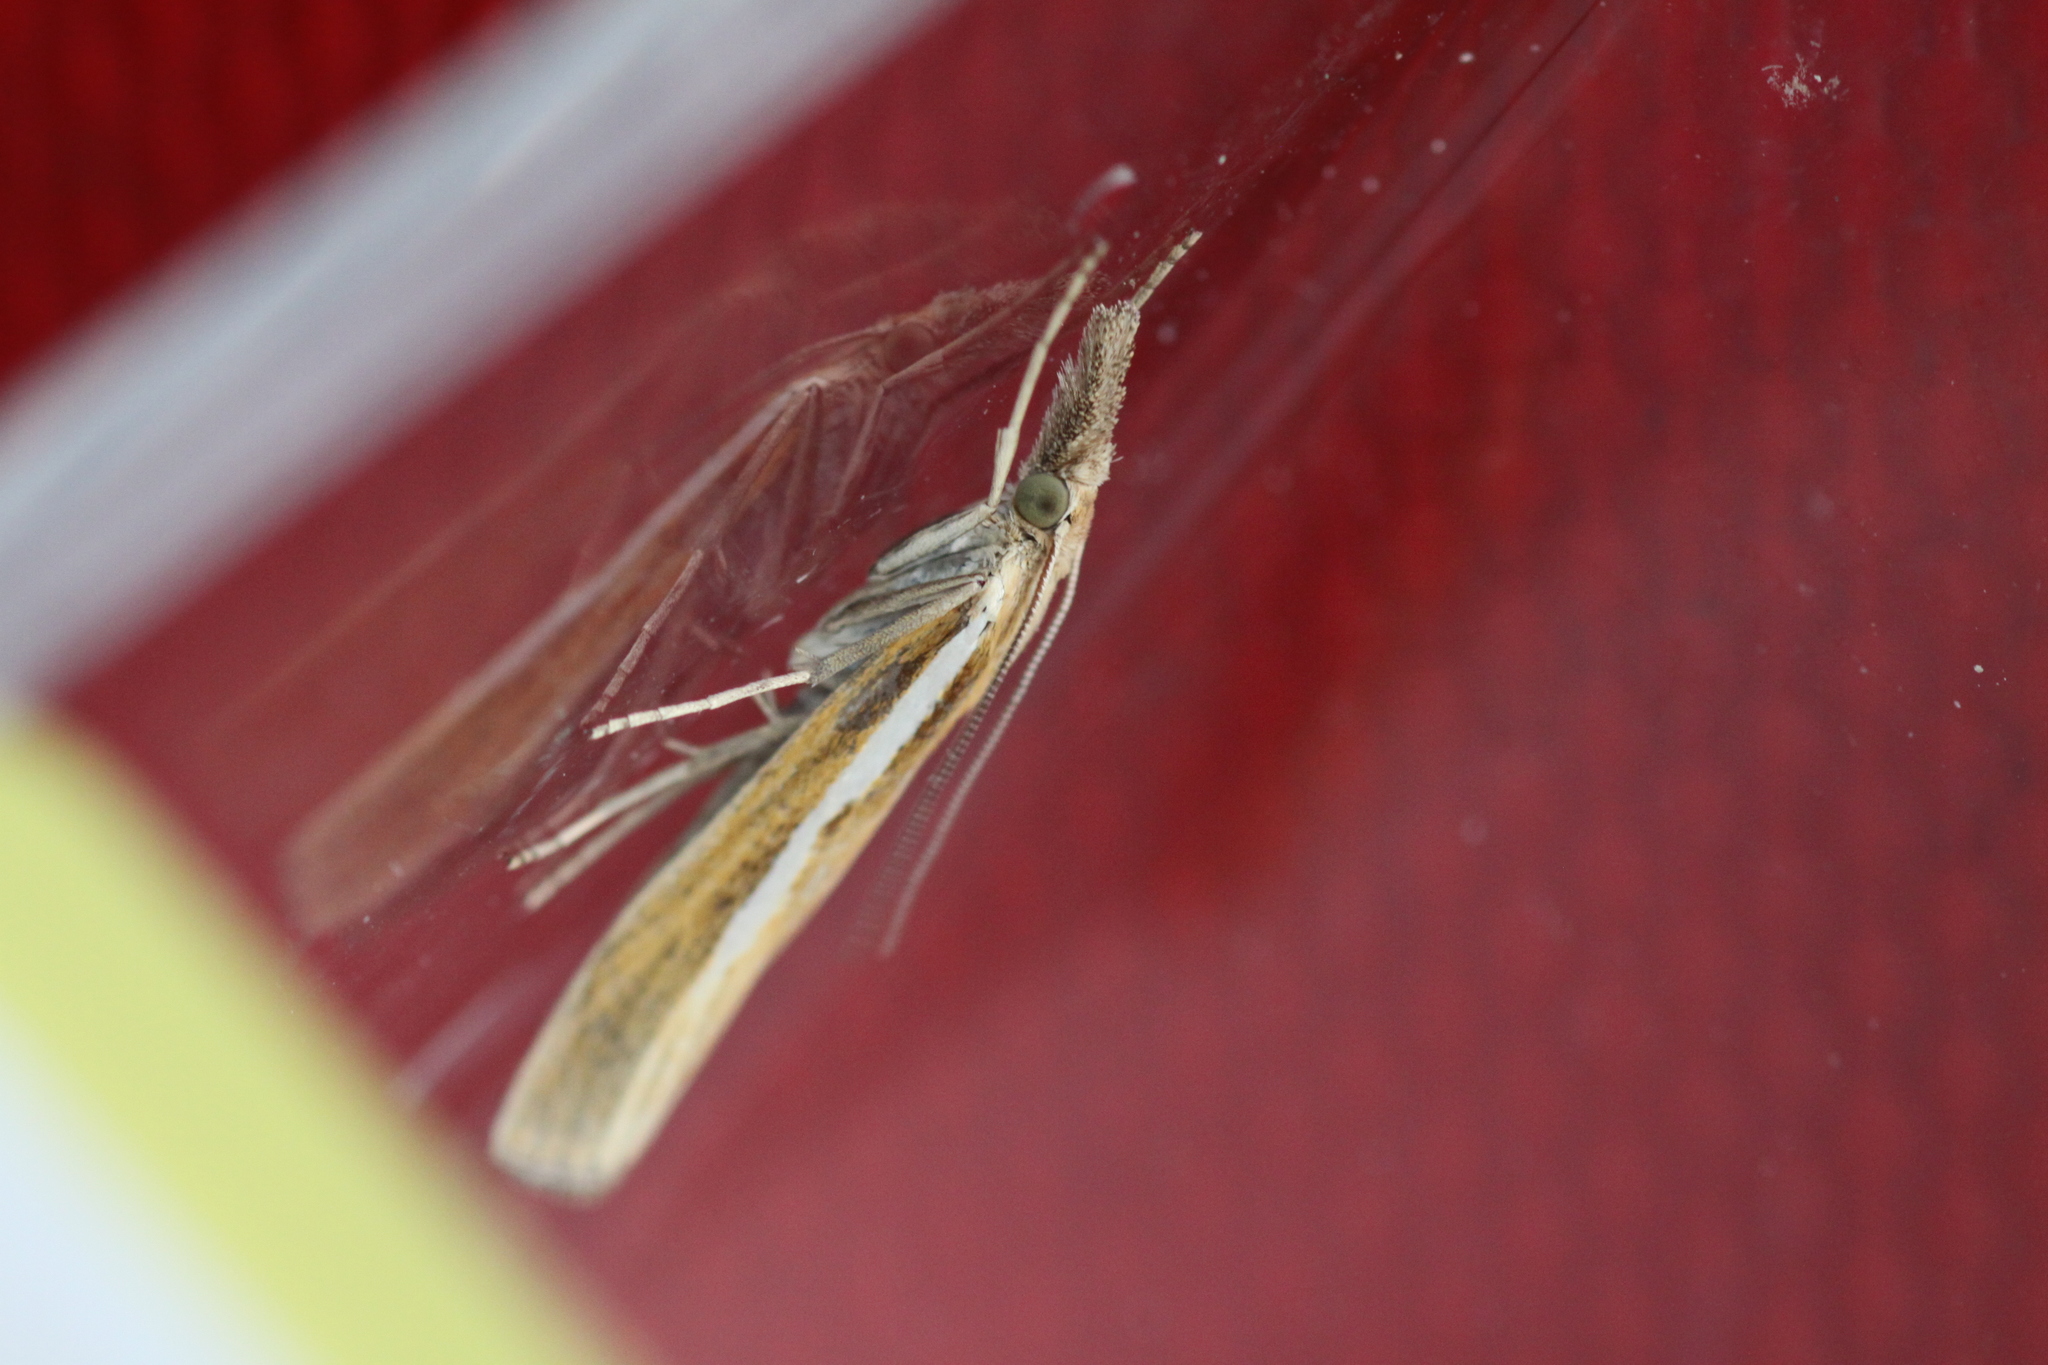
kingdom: Animalia
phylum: Arthropoda
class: Insecta
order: Lepidoptera
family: Crambidae
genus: Agriphila
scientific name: Agriphila tristellus
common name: Common grass-veneer
